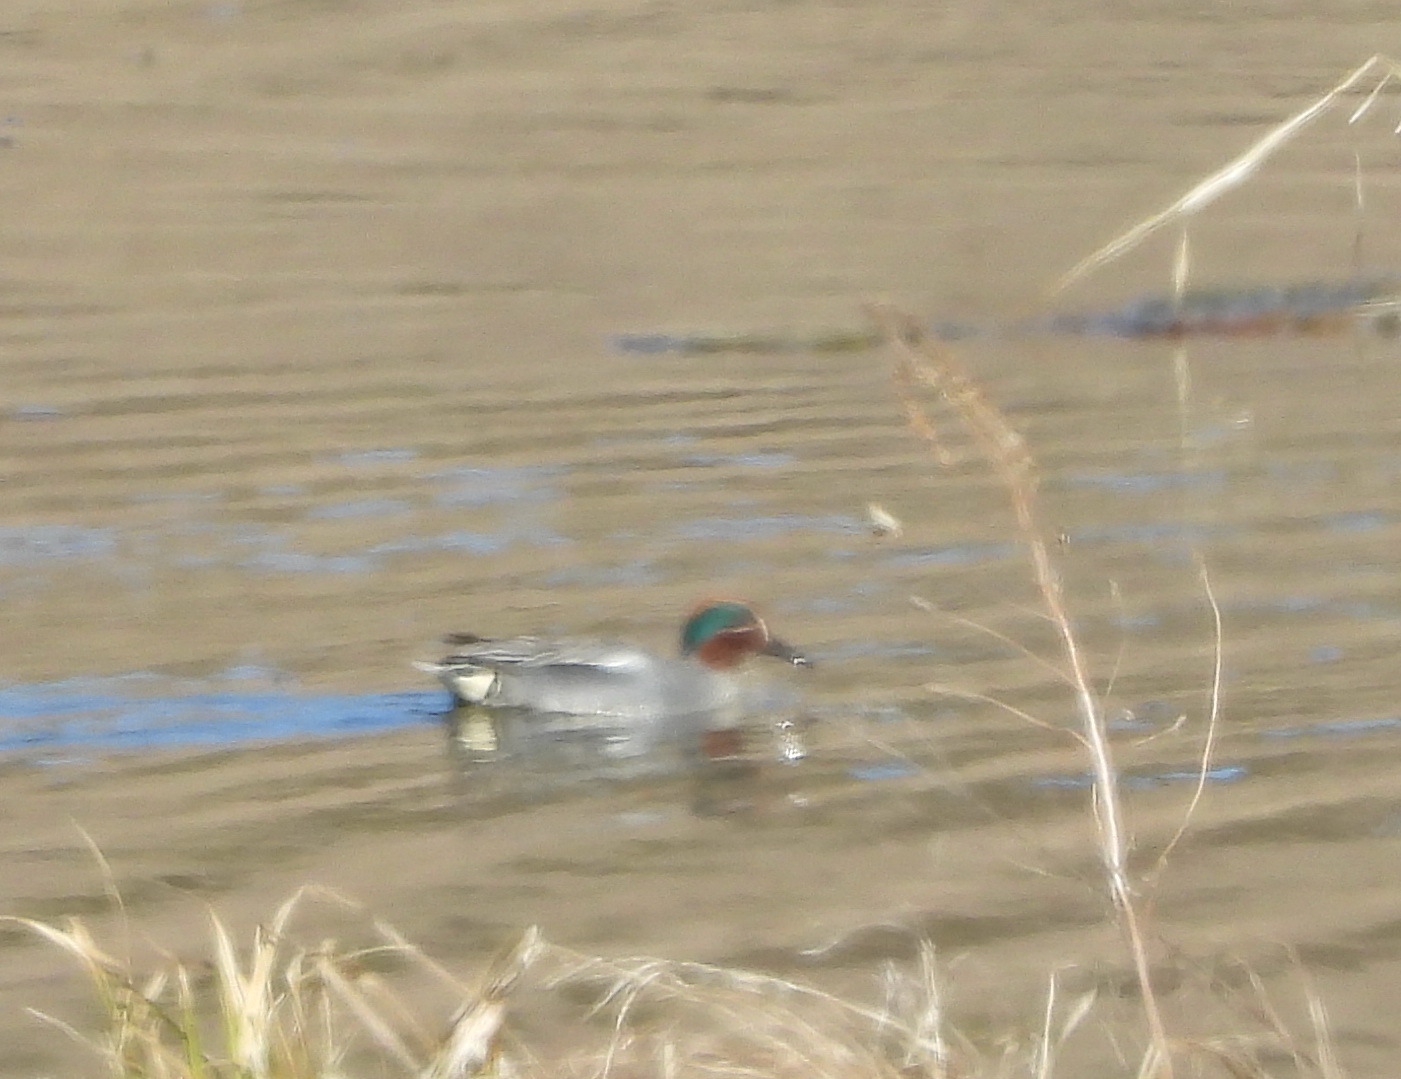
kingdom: Animalia
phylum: Chordata
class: Aves
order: Anseriformes
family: Anatidae
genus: Anas
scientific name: Anas crecca
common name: Eurasian teal
